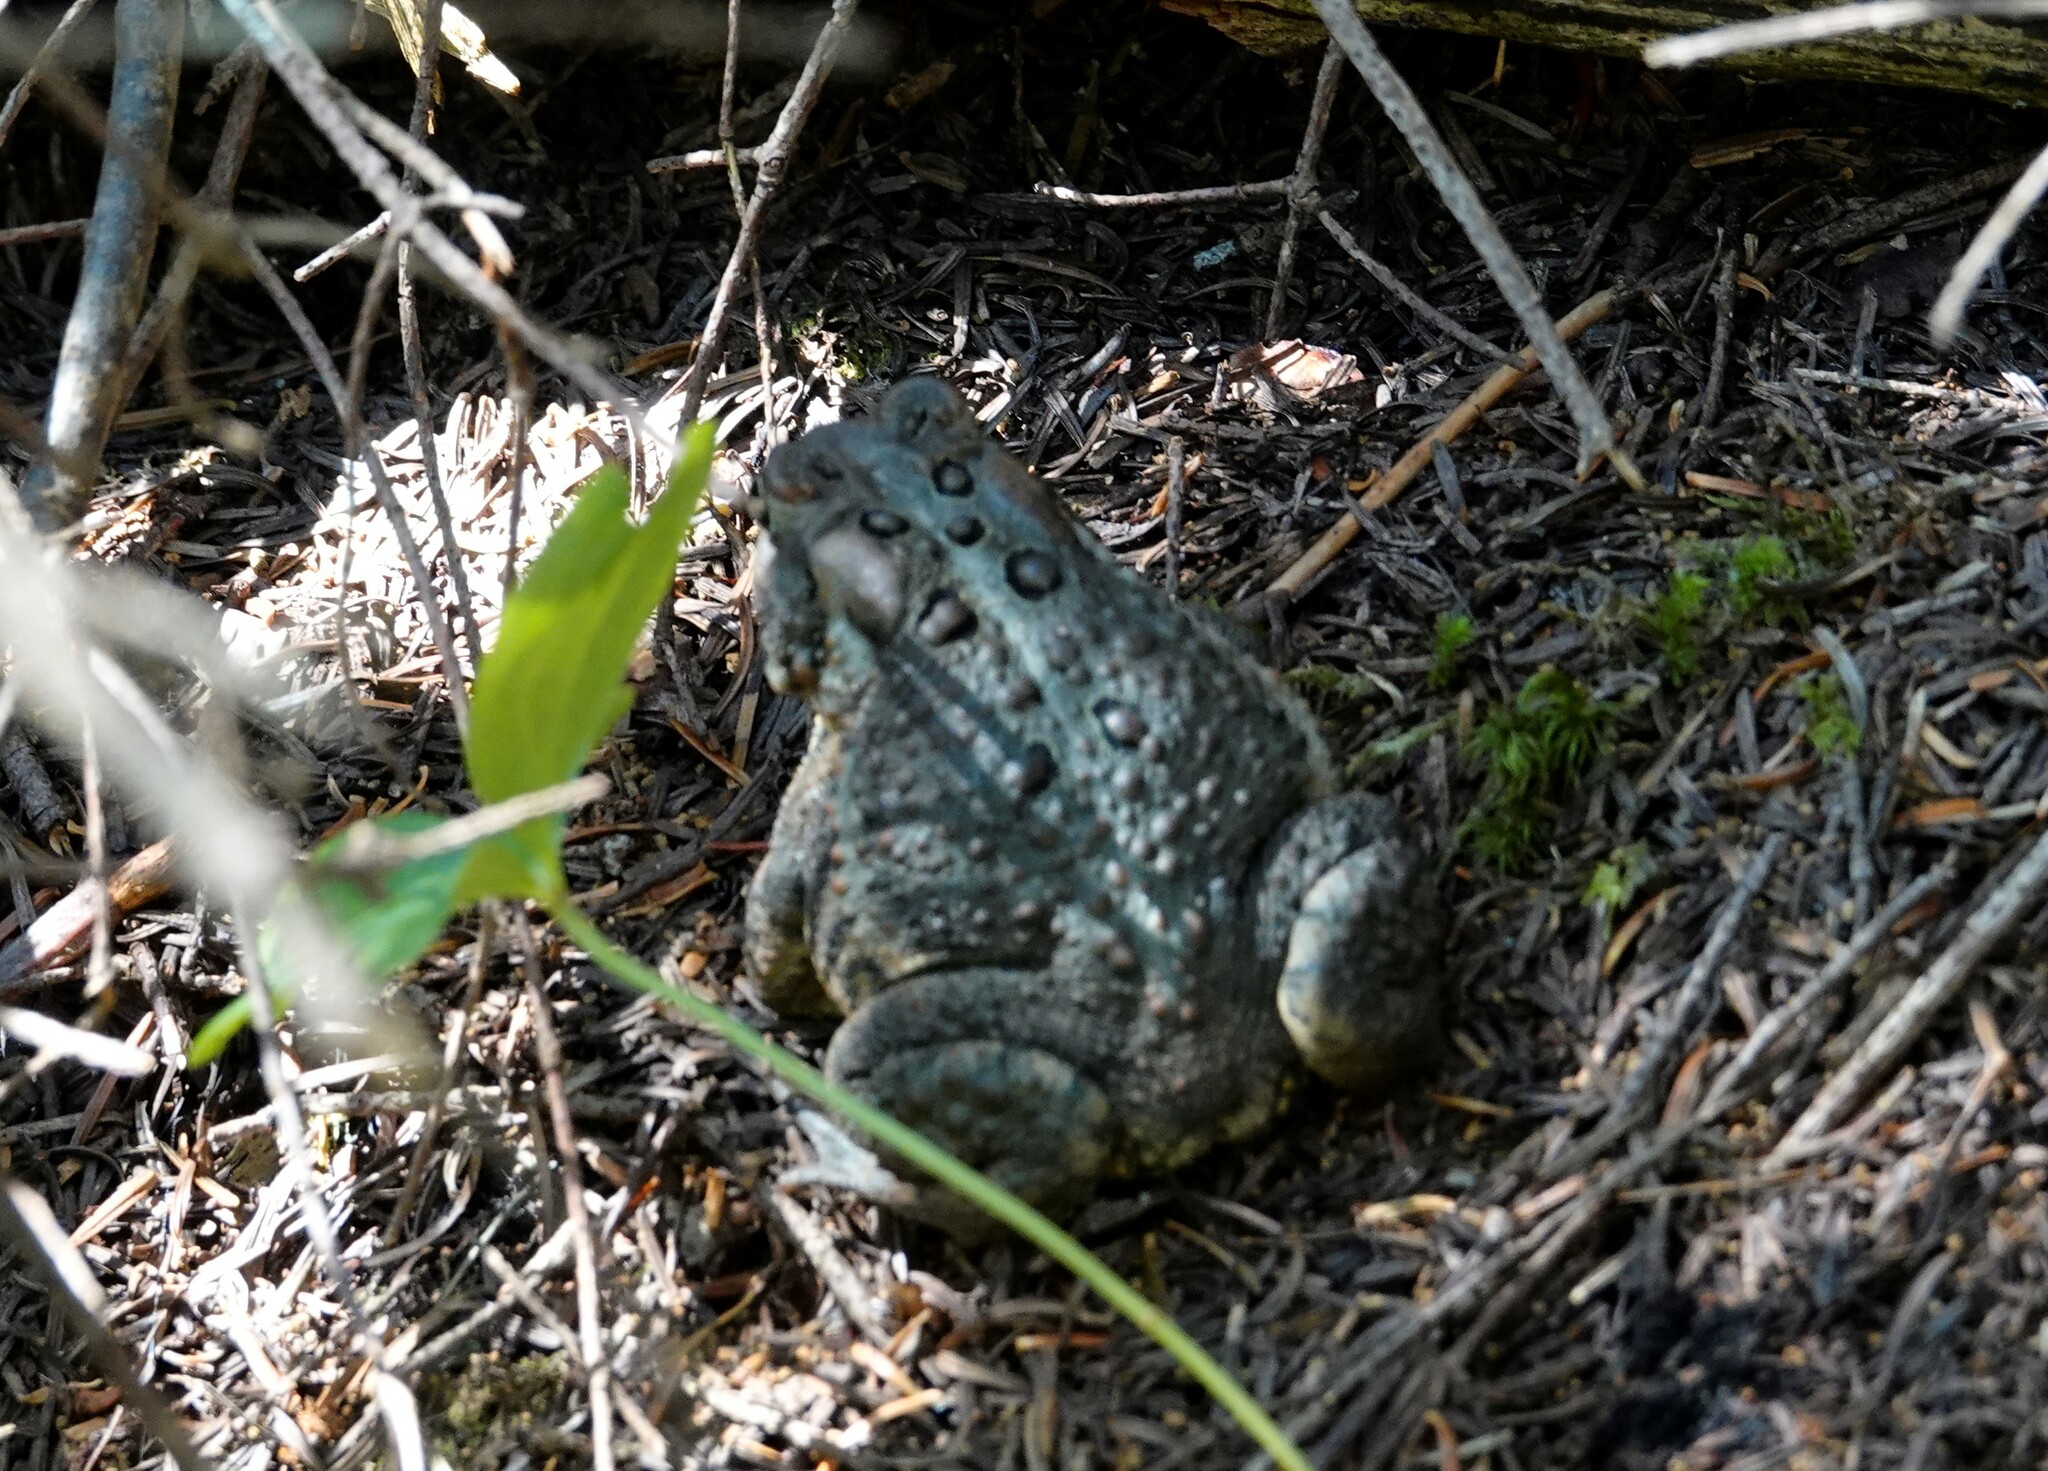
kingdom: Animalia
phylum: Chordata
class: Amphibia
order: Anura
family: Bufonidae
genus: Anaxyrus
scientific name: Anaxyrus americanus
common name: American toad
